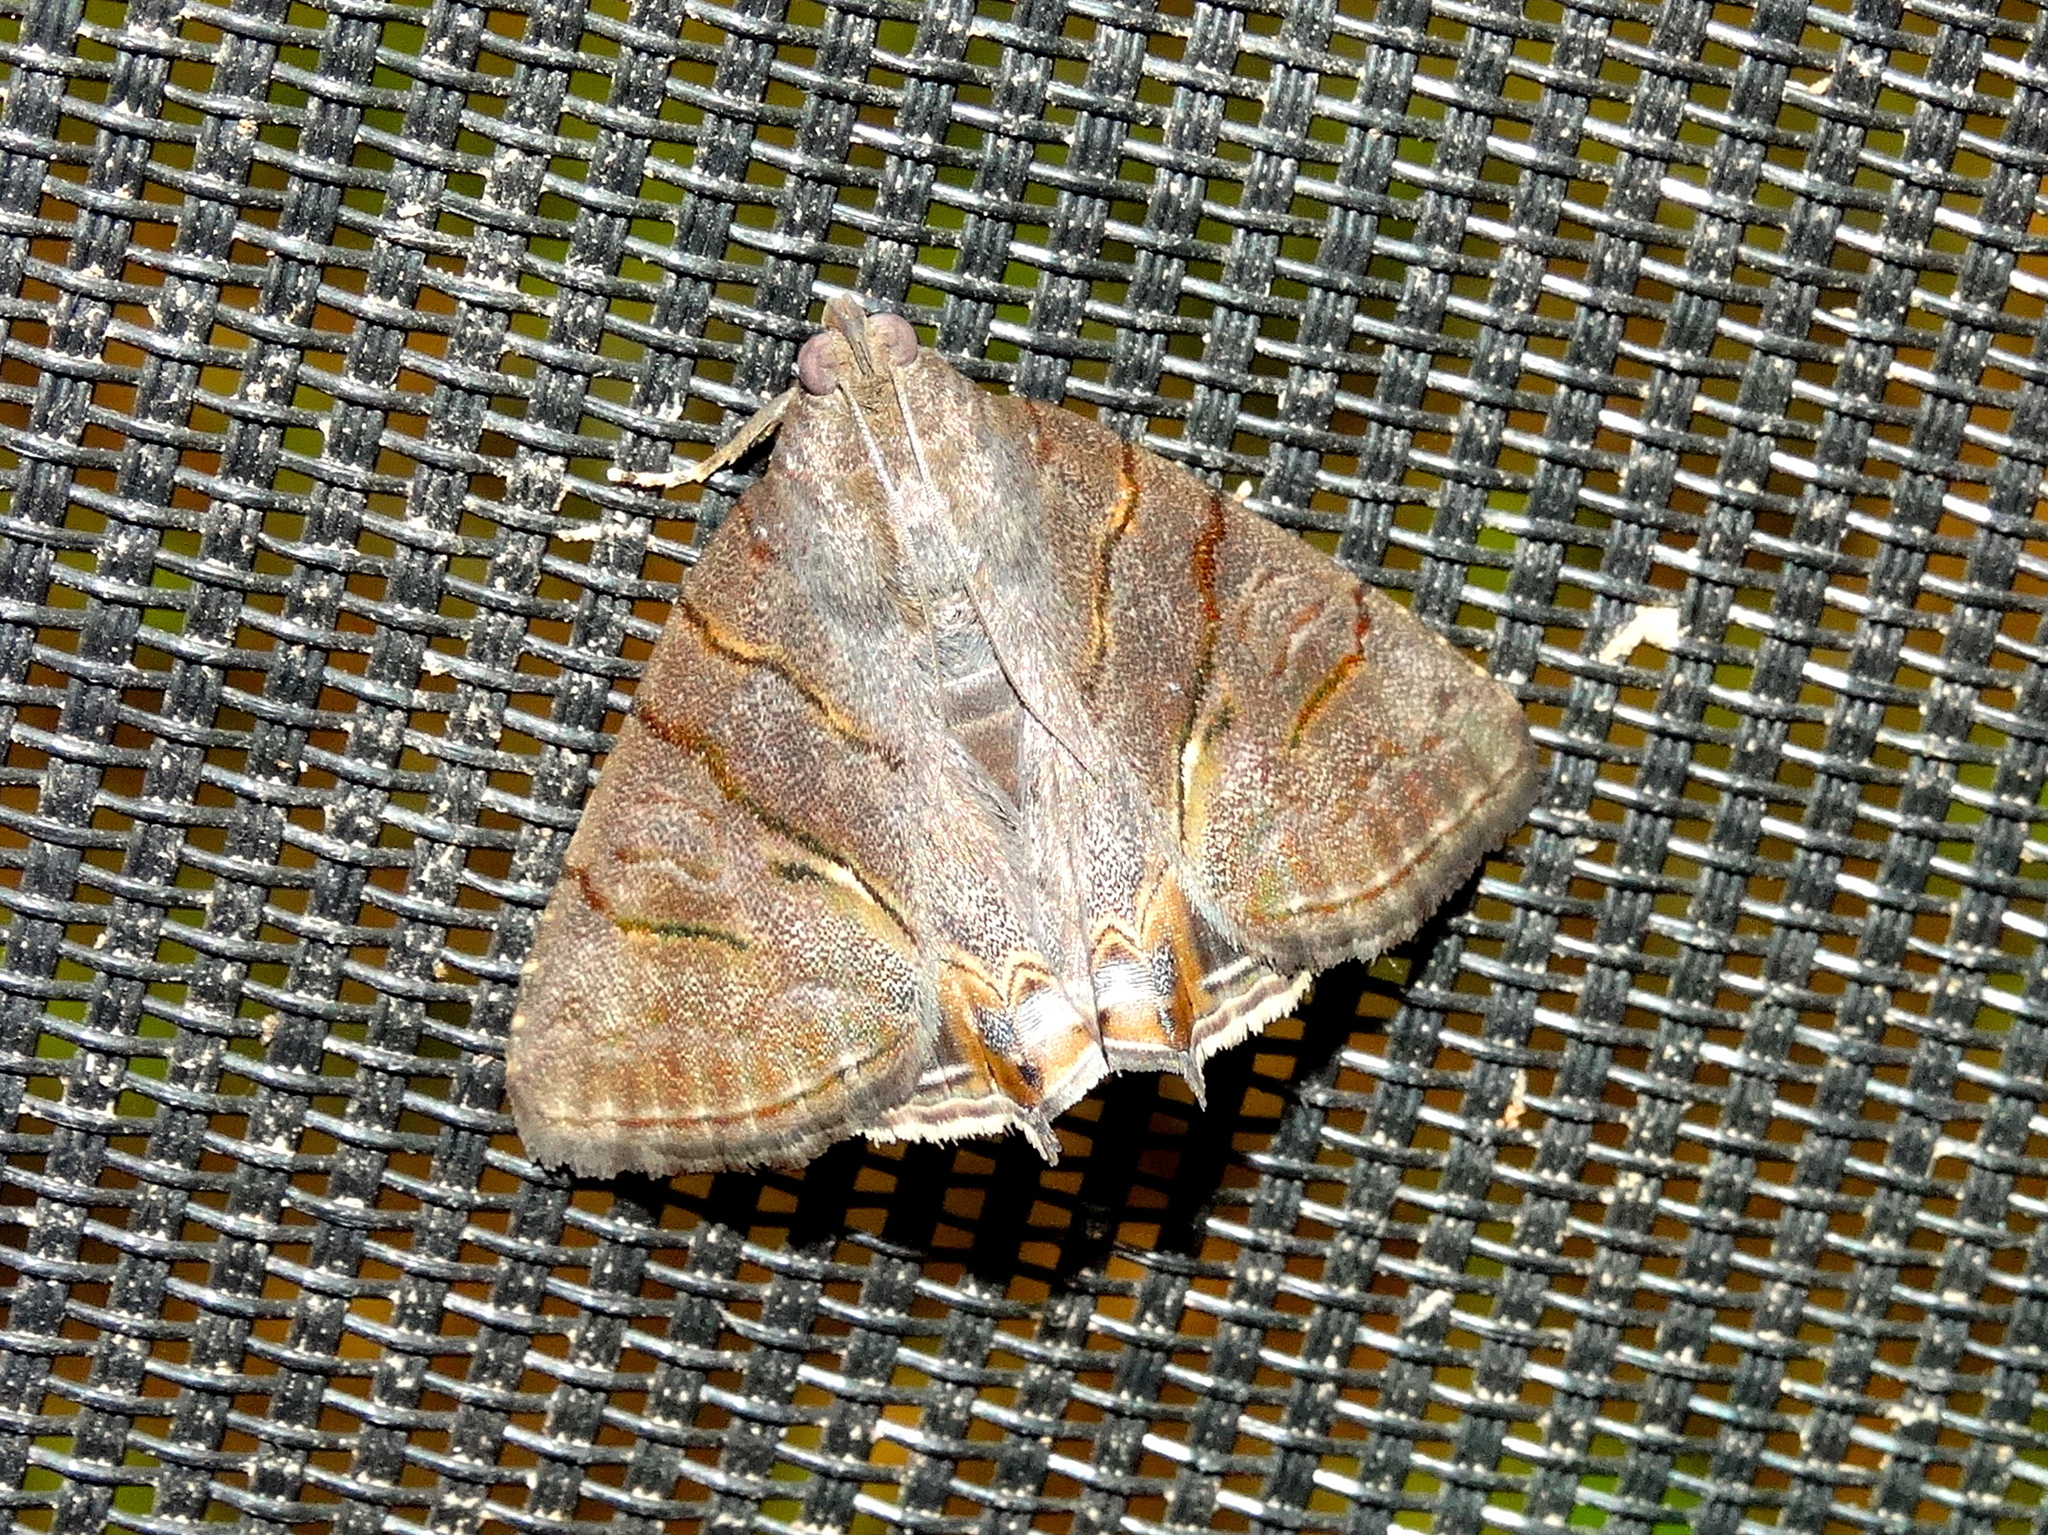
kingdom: Animalia
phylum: Arthropoda
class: Insecta
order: Lepidoptera
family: Erebidae
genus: Eulepidotis
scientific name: Eulepidotis
